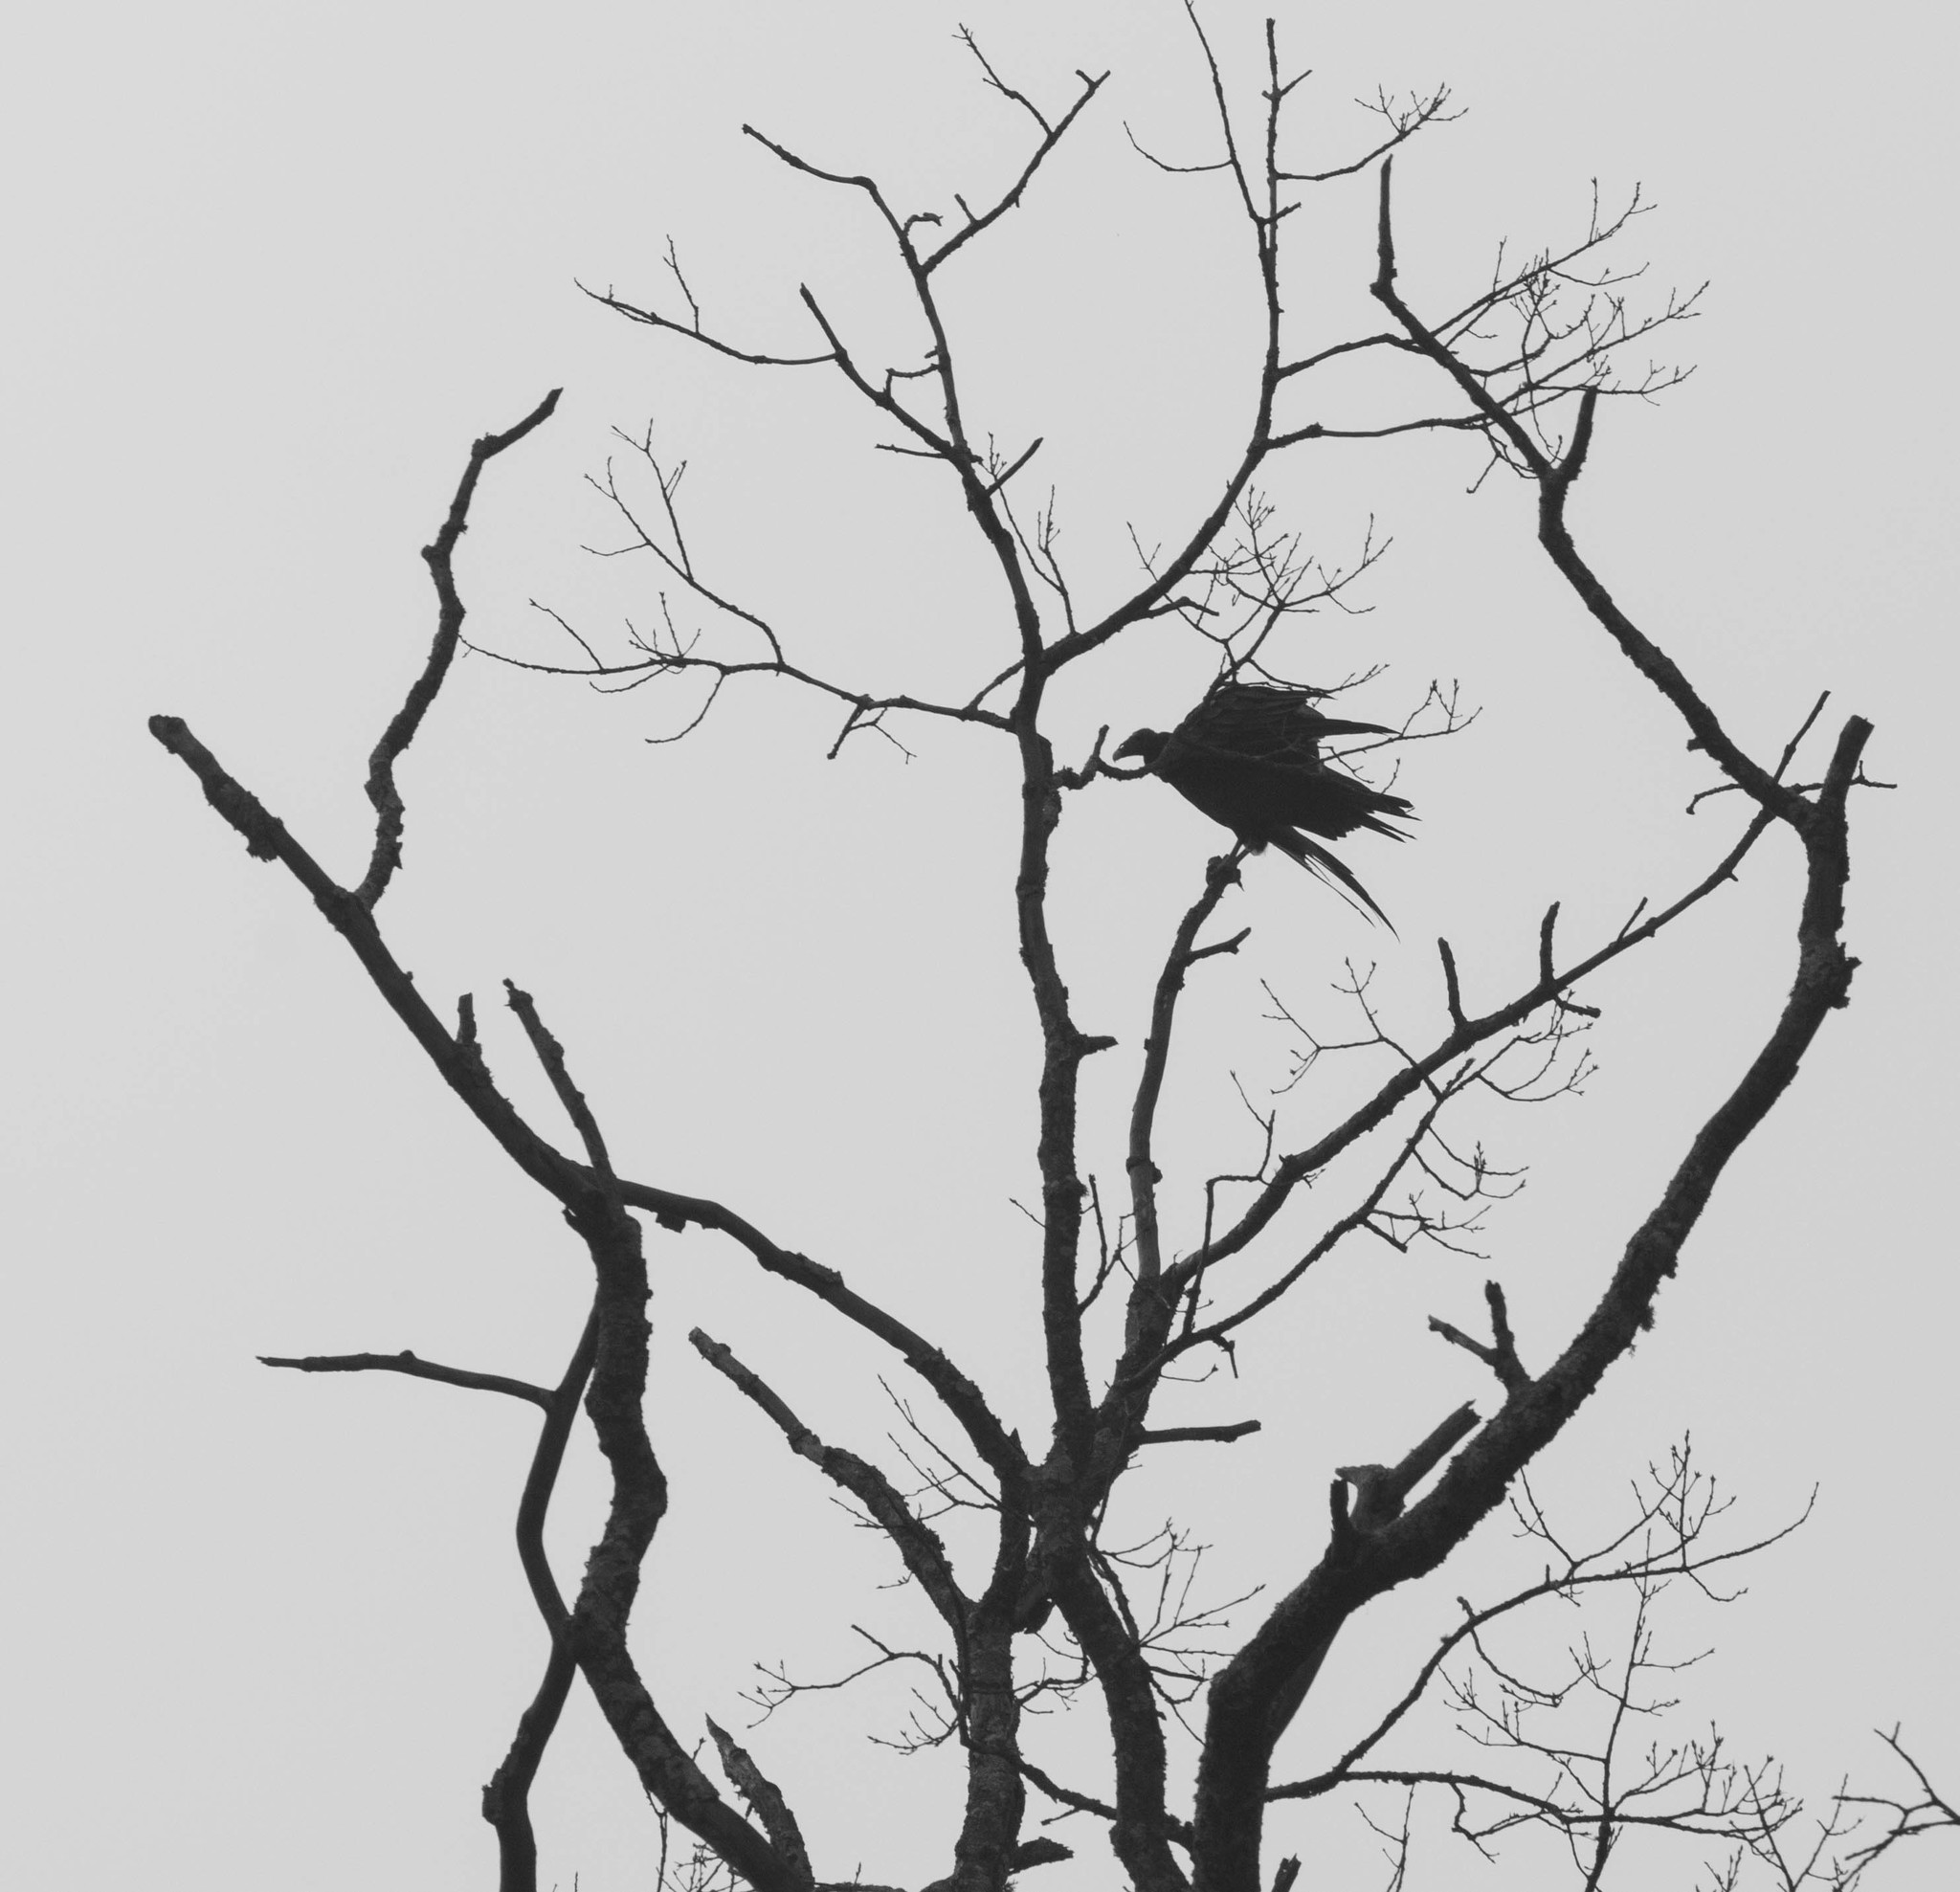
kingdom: Animalia
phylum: Chordata
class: Aves
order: Accipitriformes
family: Cathartidae
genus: Cathartes
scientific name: Cathartes aura
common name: Turkey vulture
